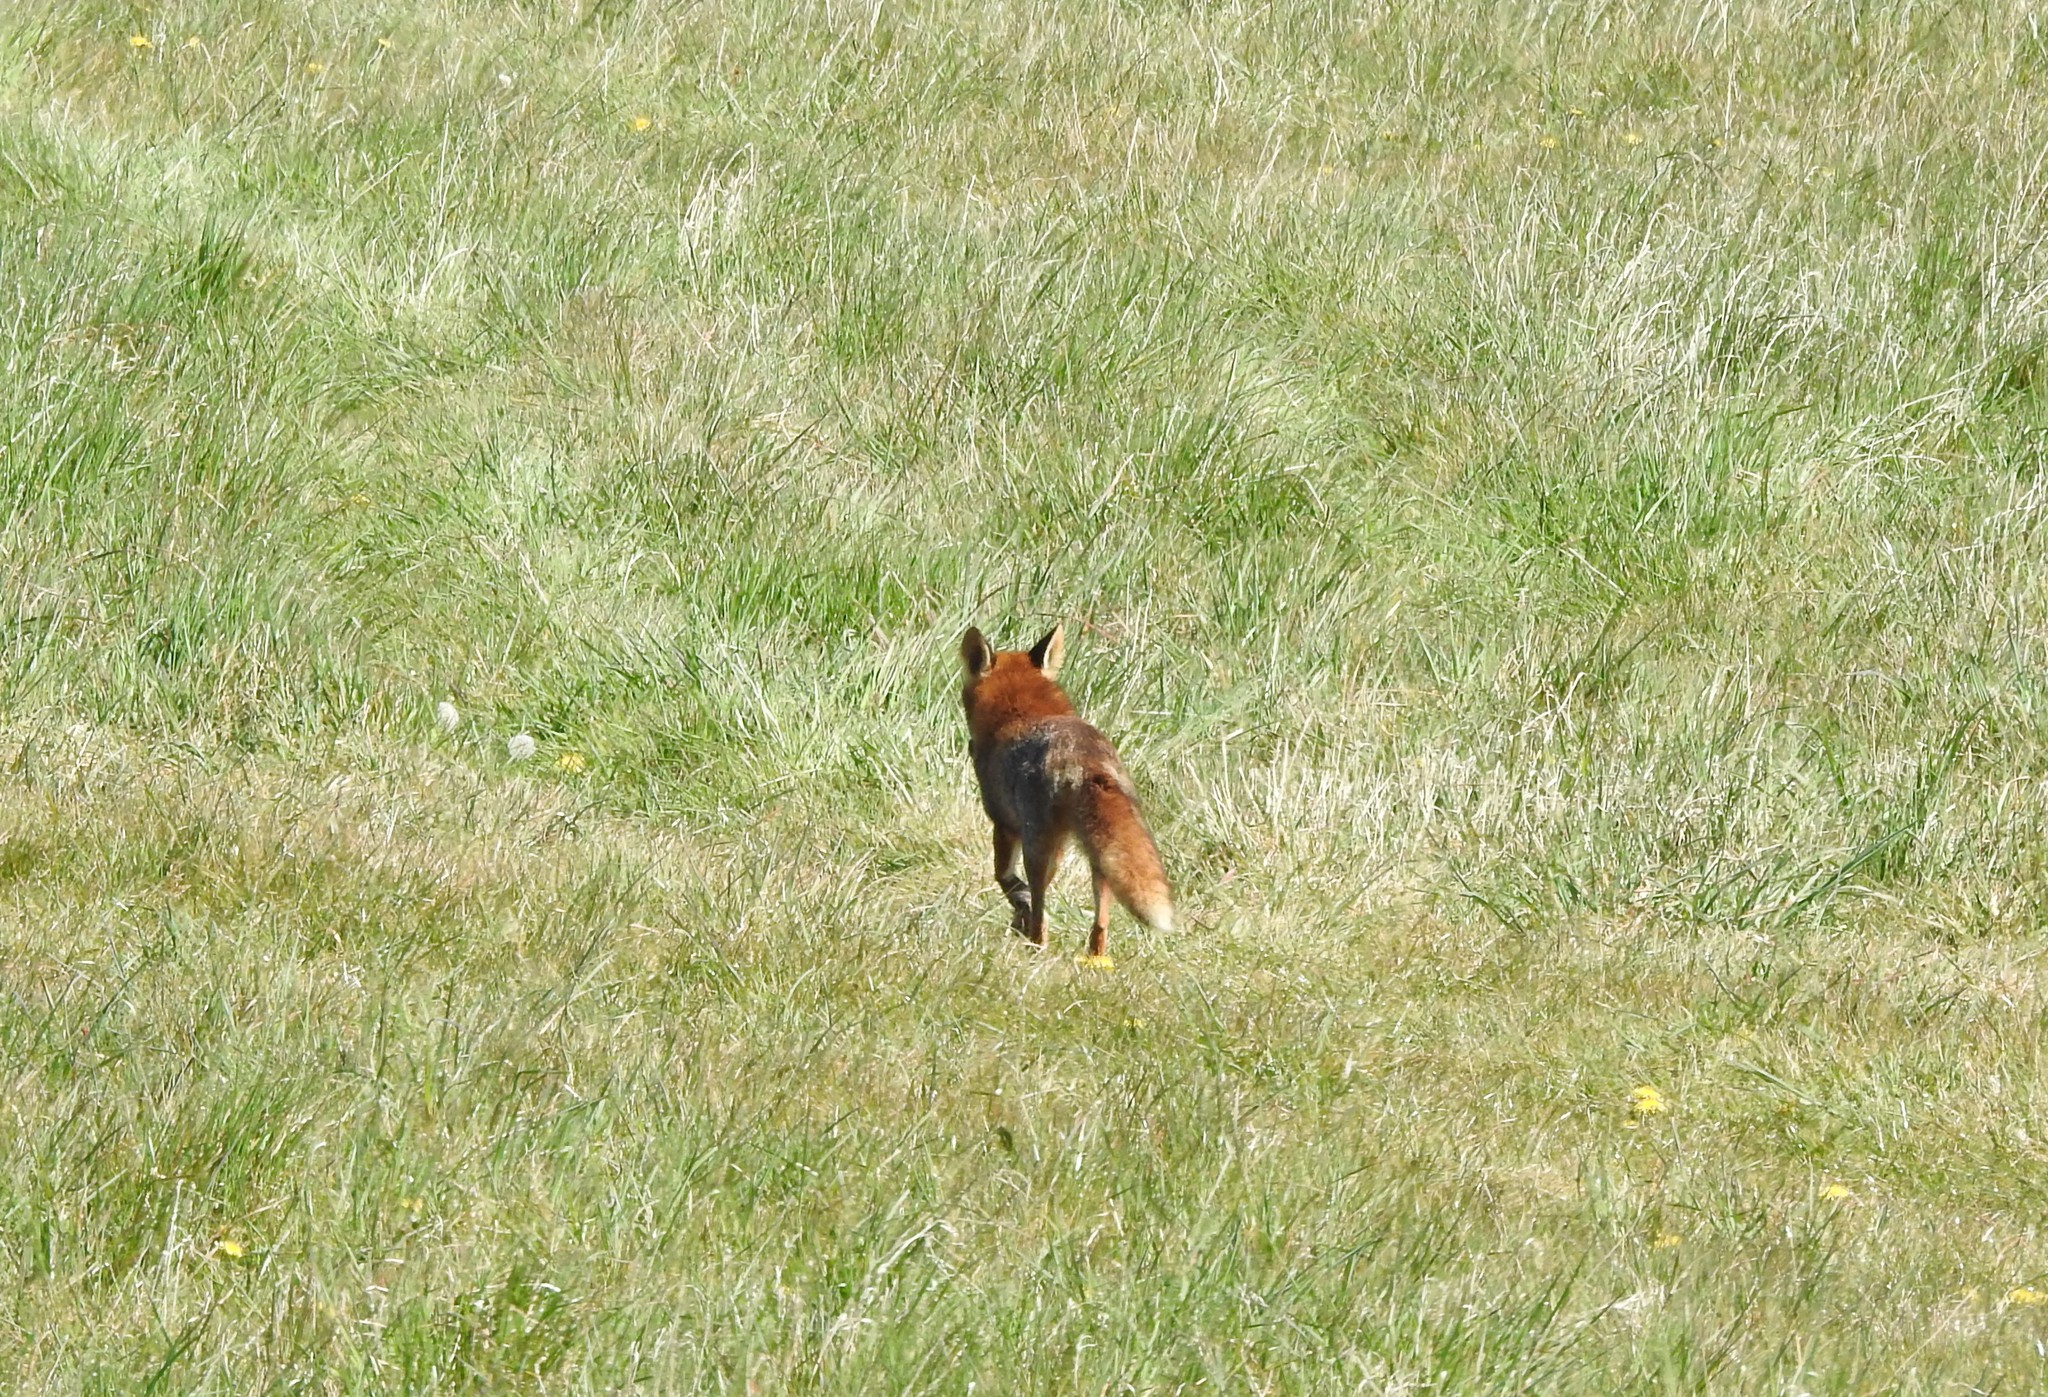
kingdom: Animalia
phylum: Chordata
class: Mammalia
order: Carnivora
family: Canidae
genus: Vulpes
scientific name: Vulpes vulpes
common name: Red fox
